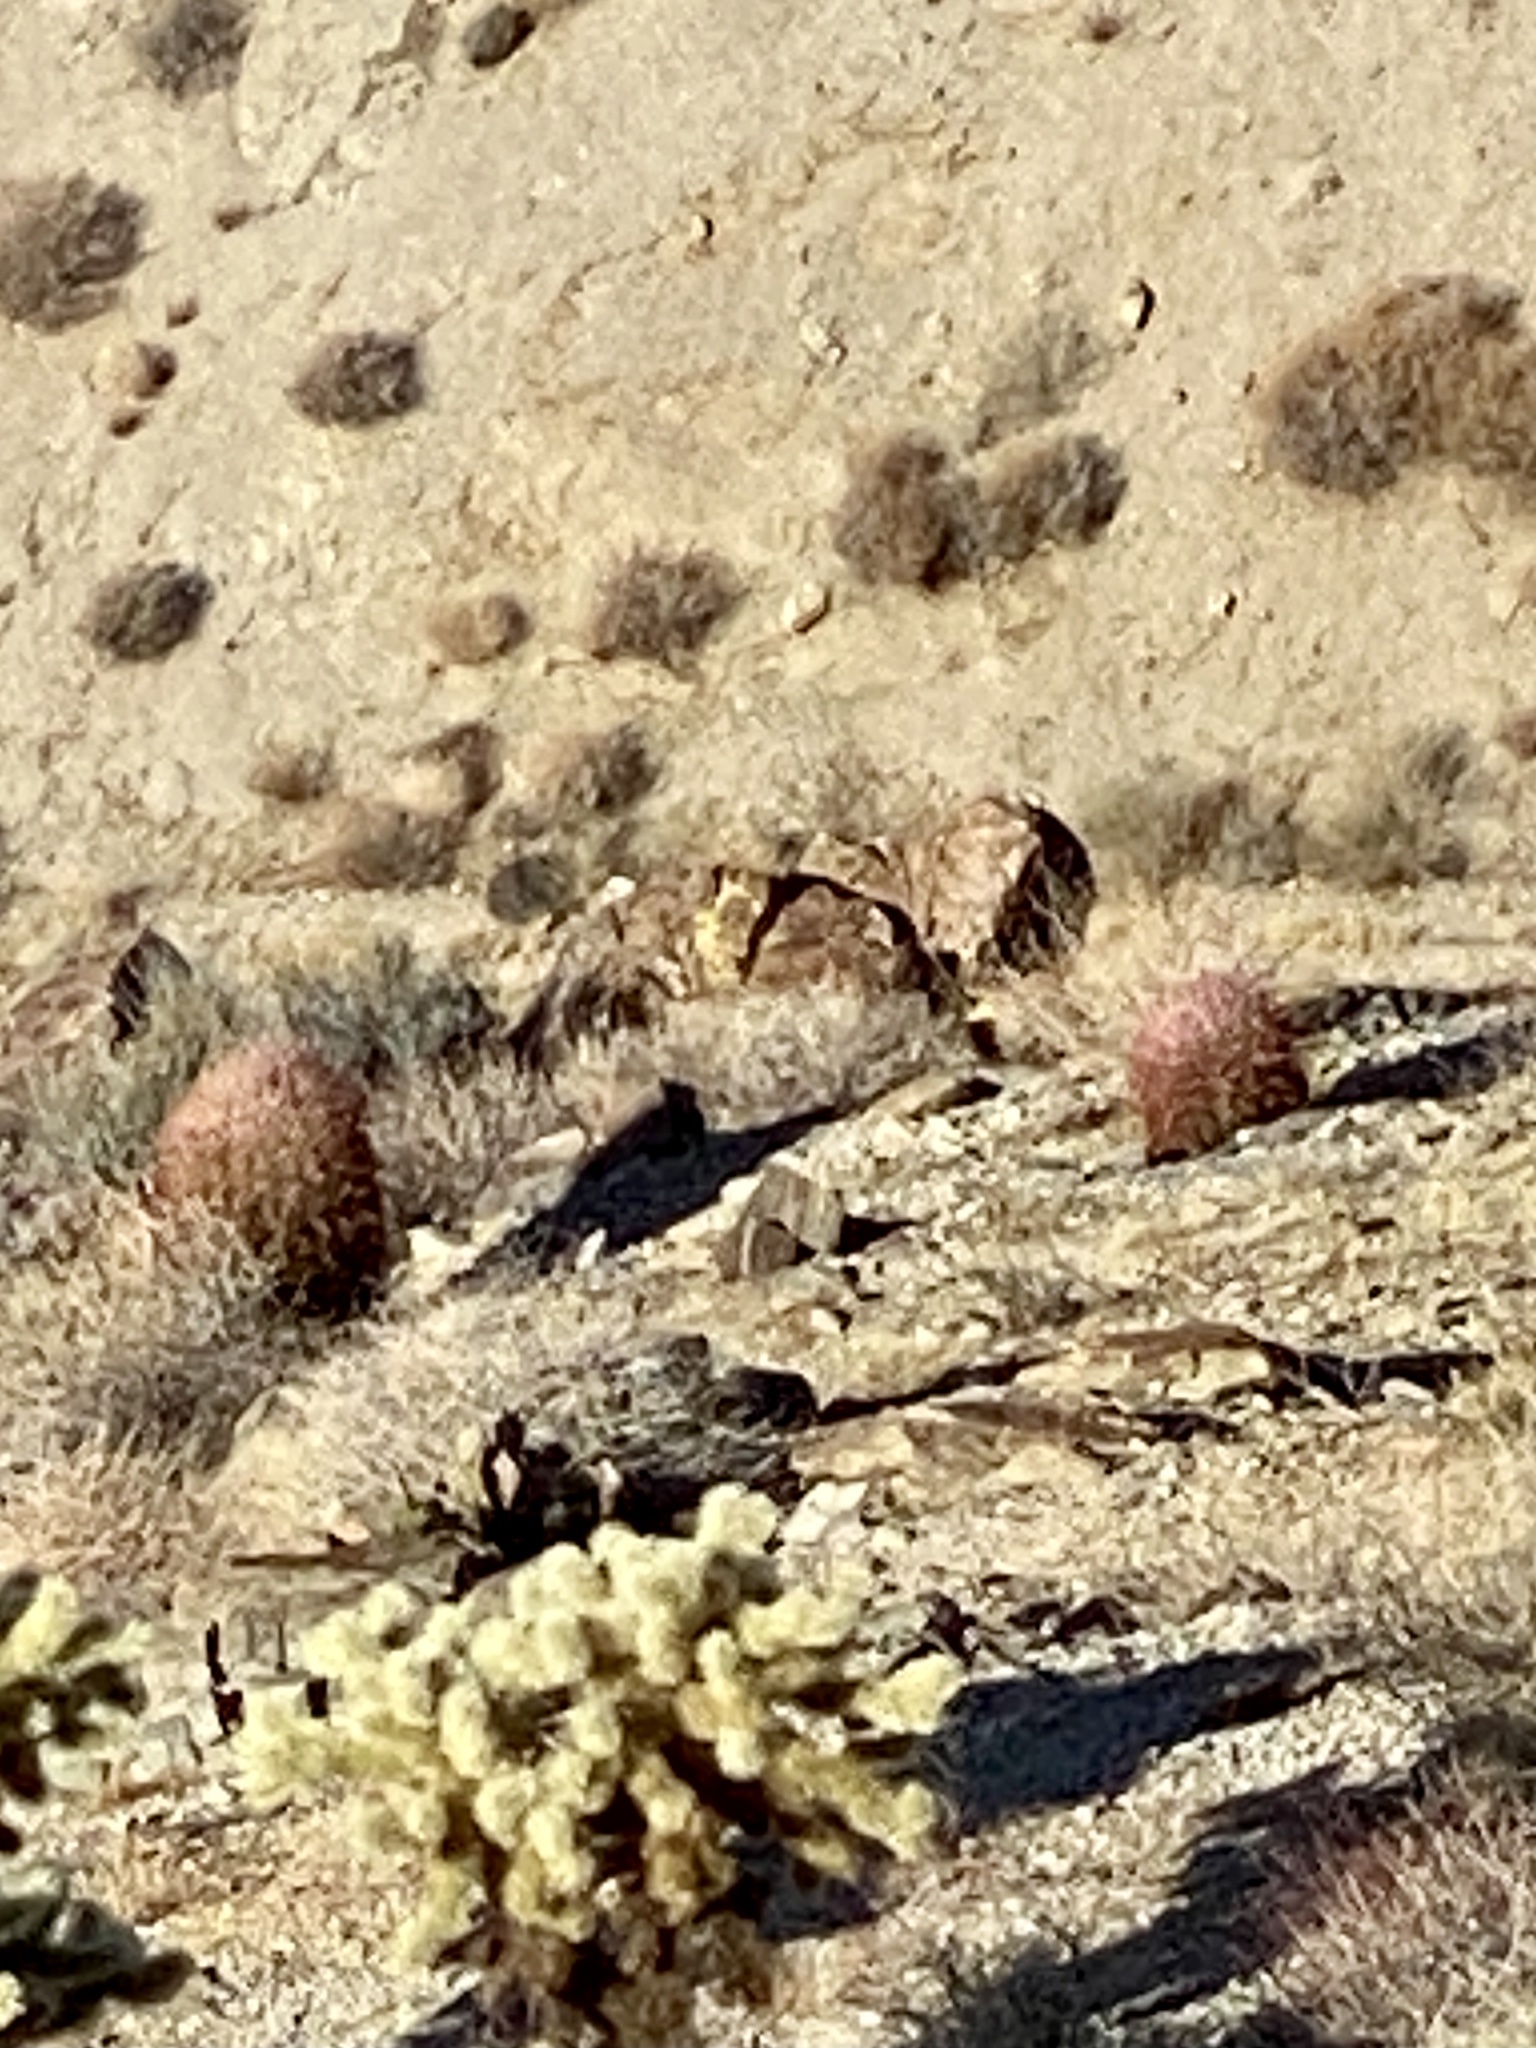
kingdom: Plantae
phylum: Tracheophyta
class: Magnoliopsida
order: Caryophyllales
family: Cactaceae
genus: Ferocactus
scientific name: Ferocactus cylindraceus
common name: California barrel cactus
